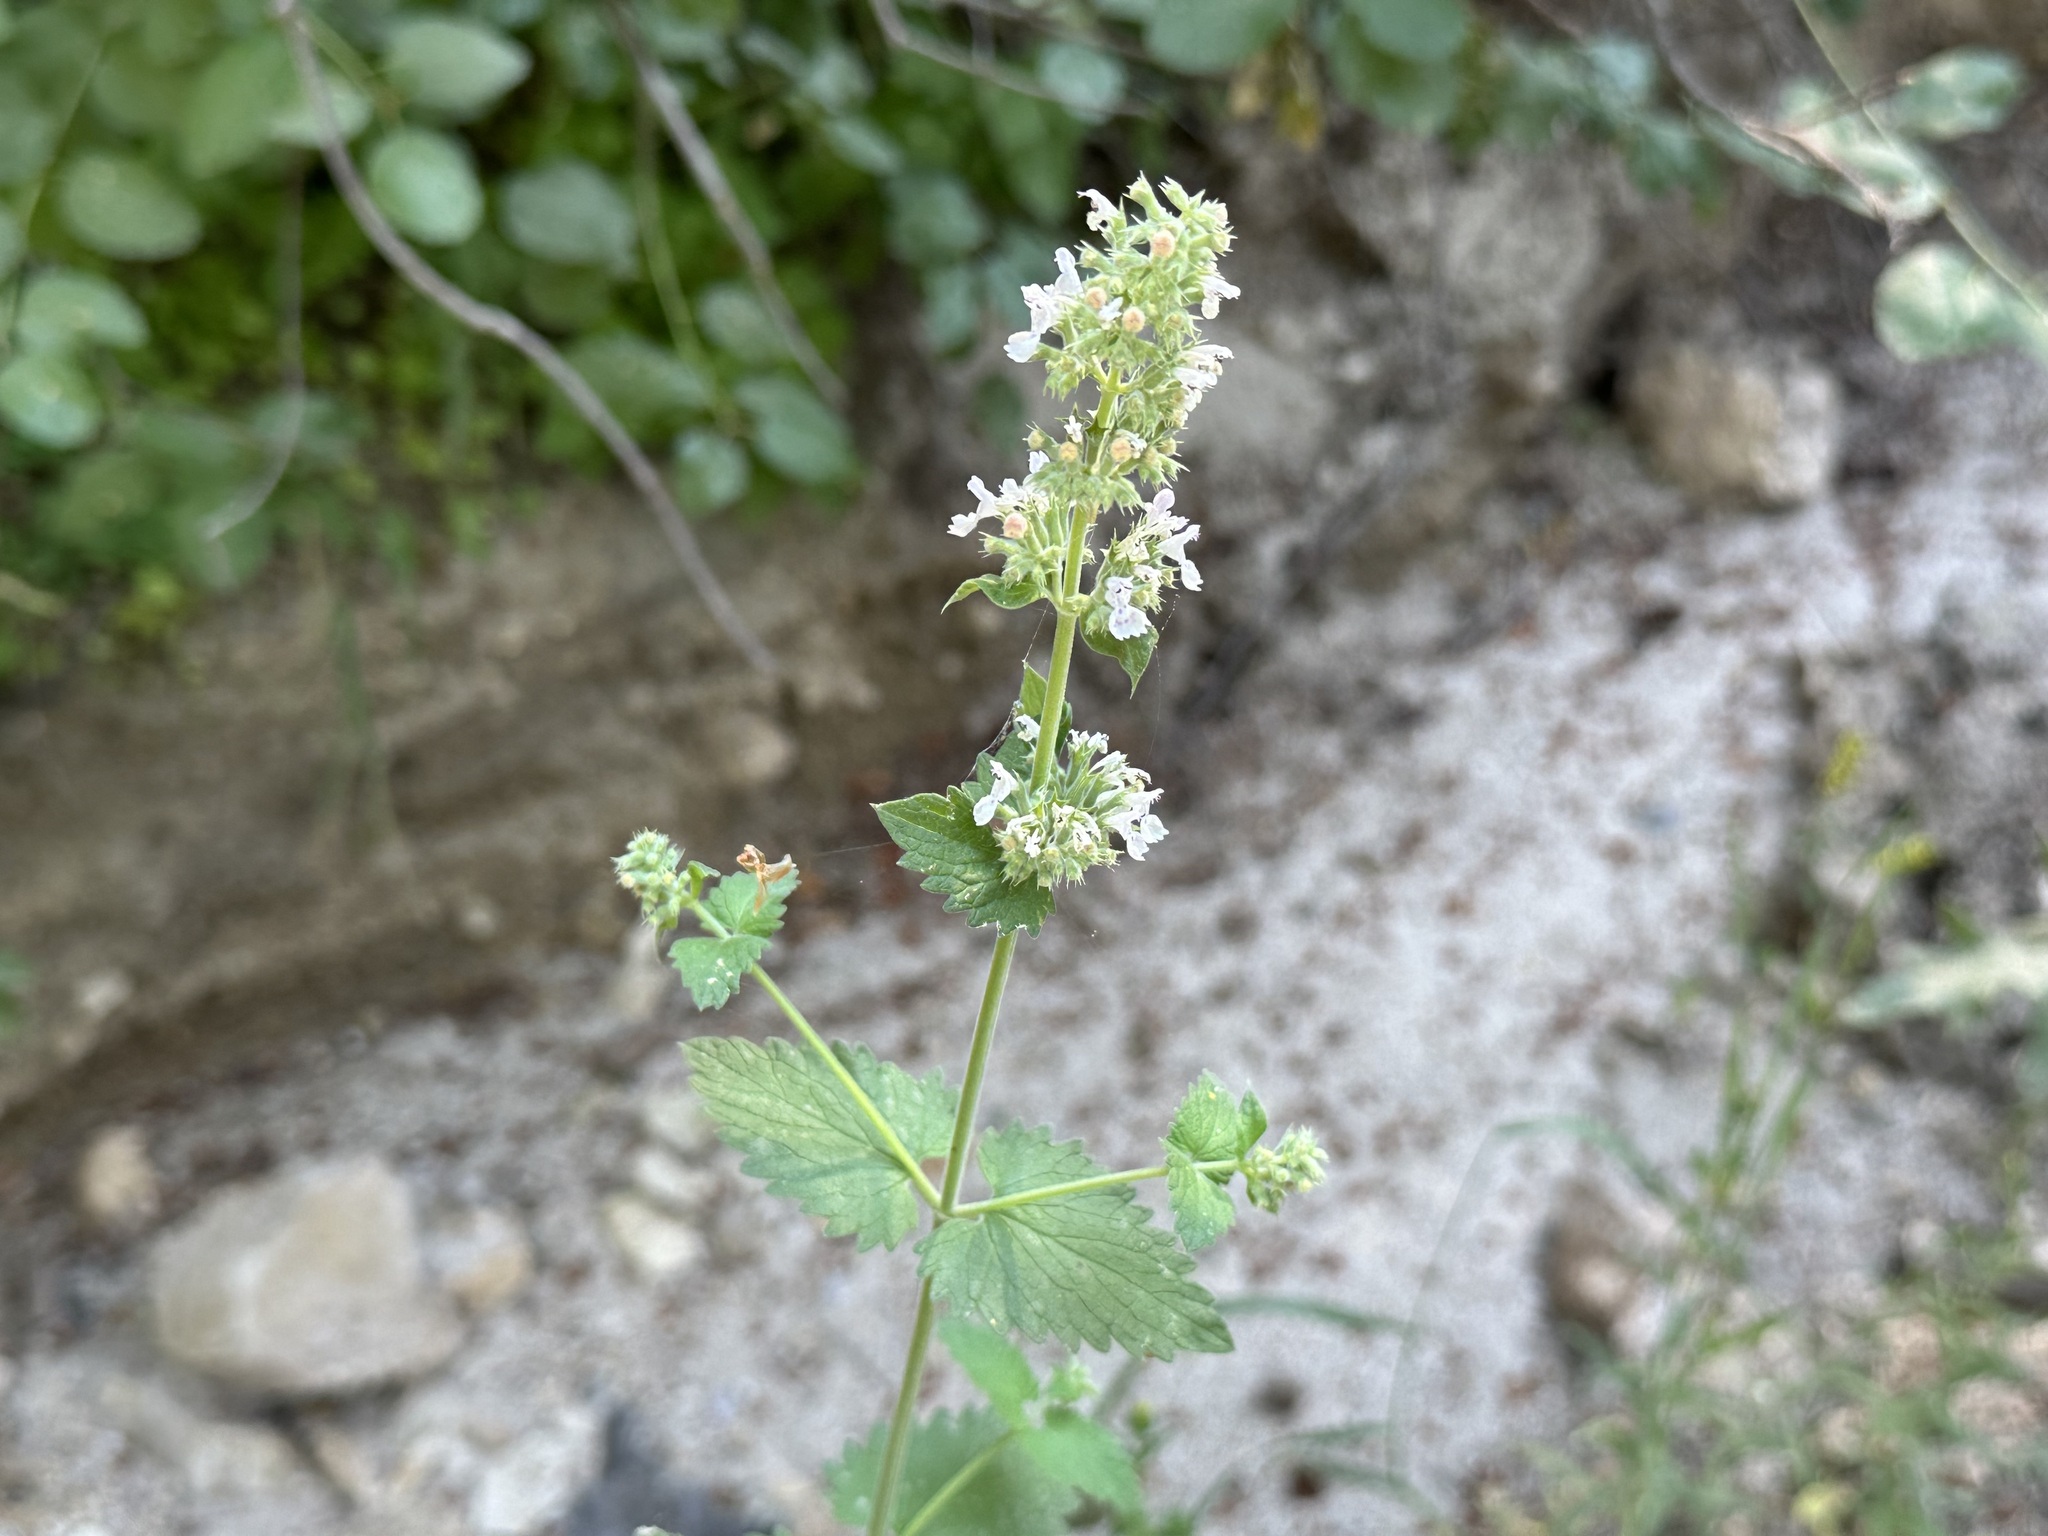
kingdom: Plantae
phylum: Tracheophyta
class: Magnoliopsida
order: Lamiales
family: Lamiaceae
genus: Nepeta
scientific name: Nepeta cataria
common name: Catnip
